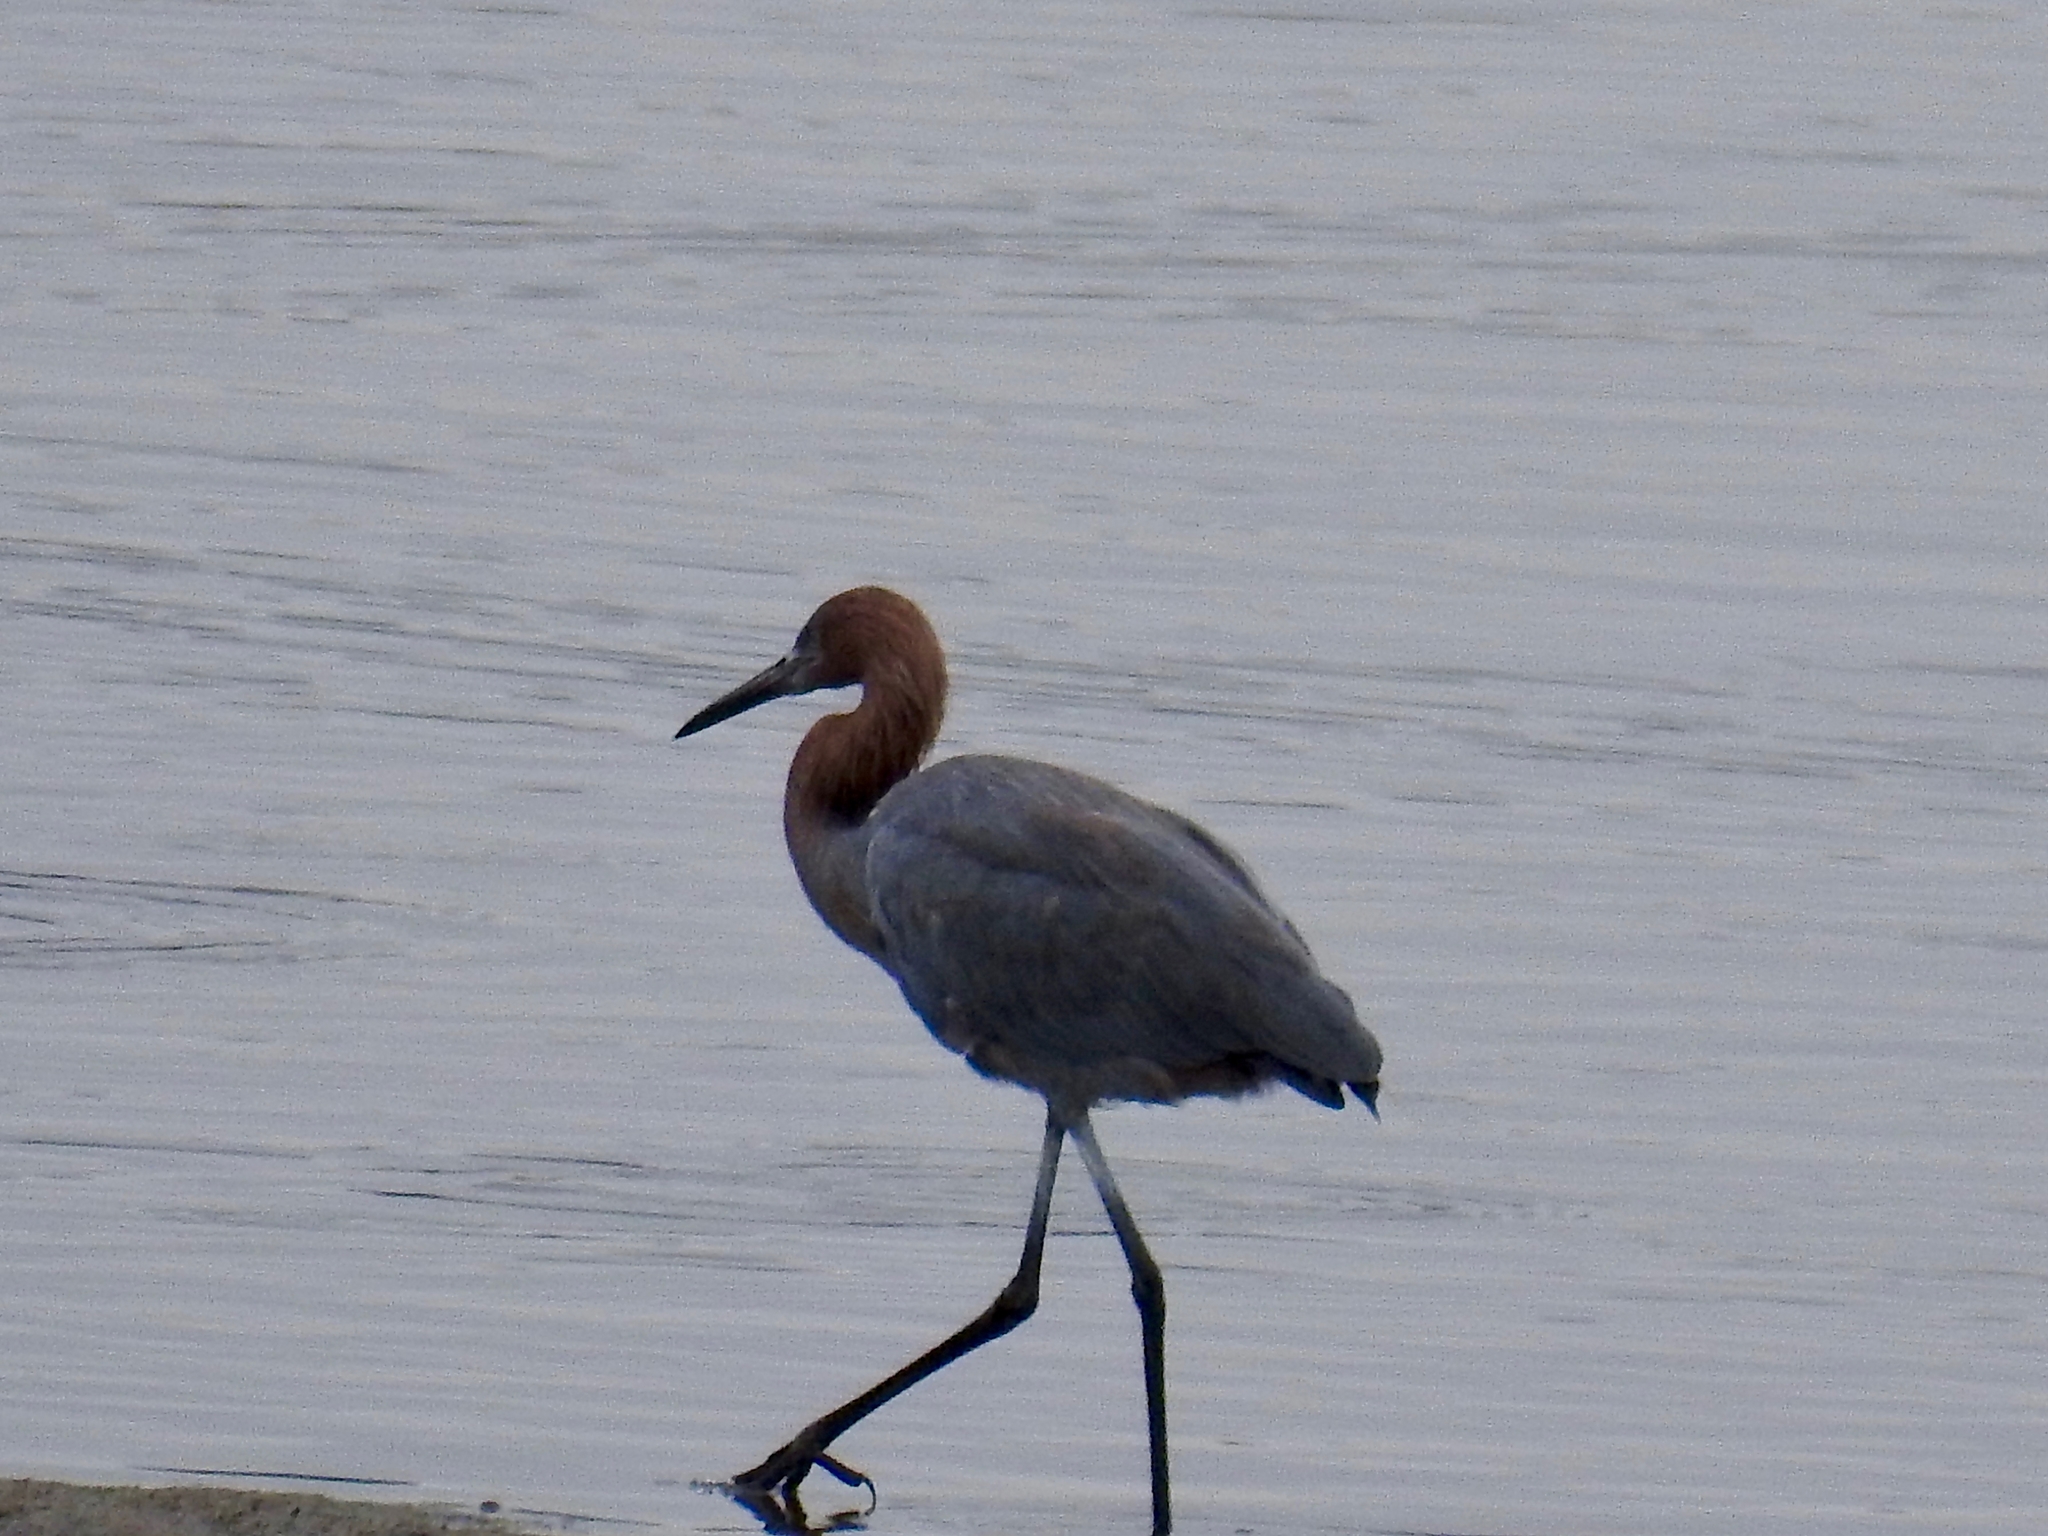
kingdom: Animalia
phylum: Chordata
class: Aves
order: Pelecaniformes
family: Ardeidae
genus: Egretta
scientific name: Egretta rufescens
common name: Reddish egret
